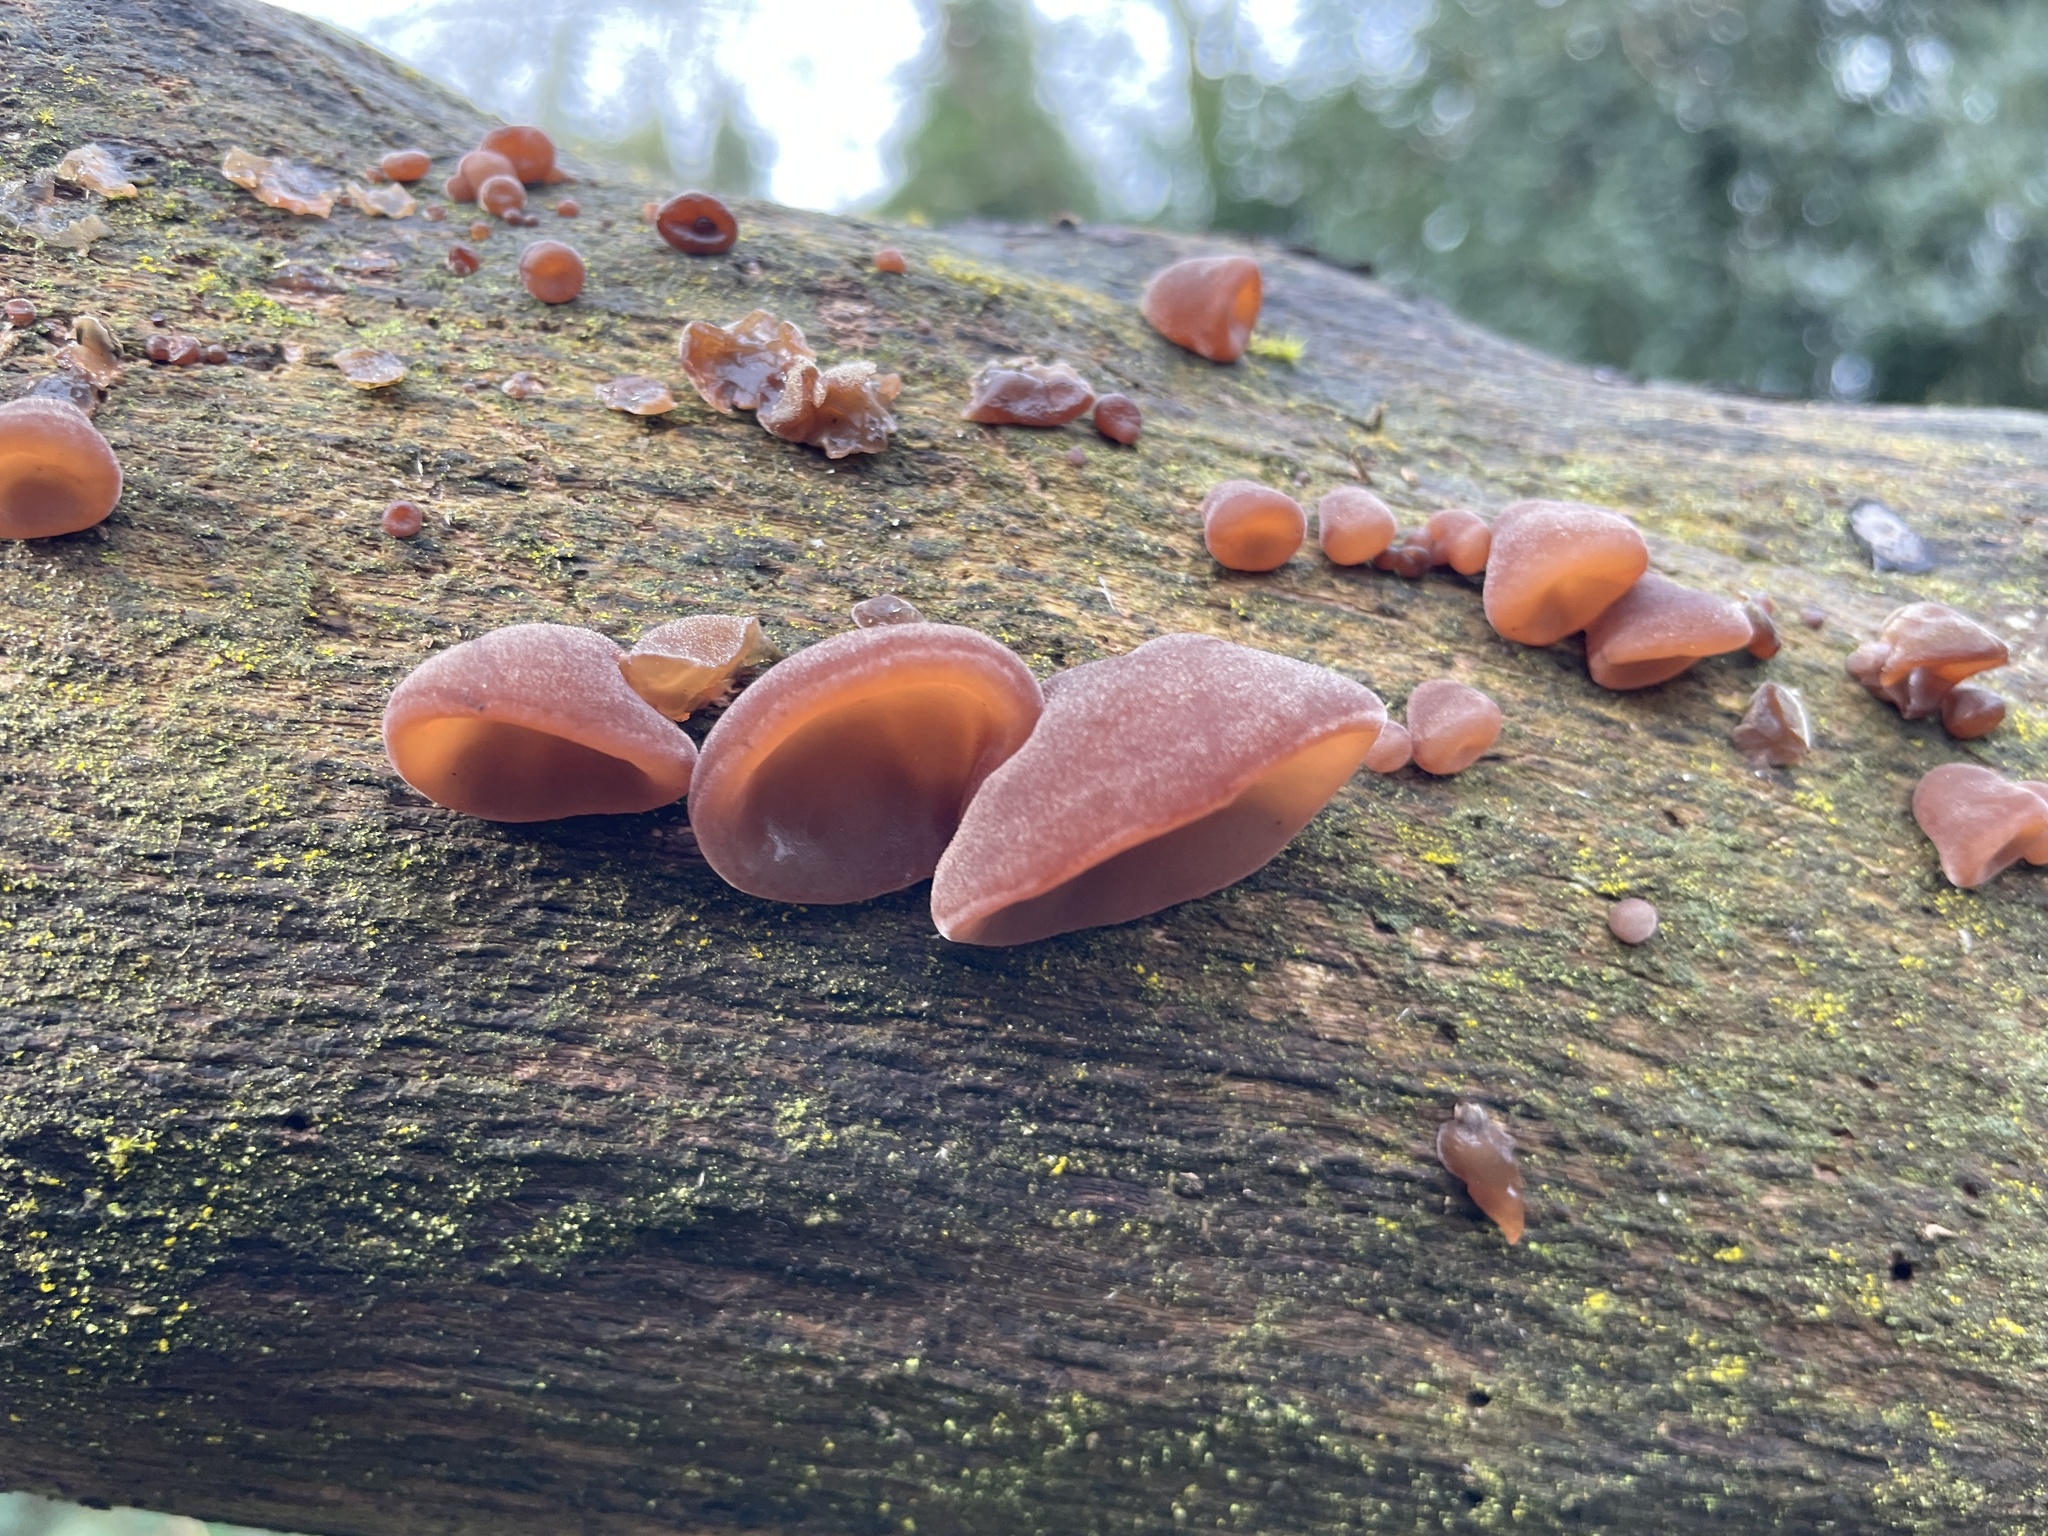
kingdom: Fungi
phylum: Basidiomycota
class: Agaricomycetes
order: Auriculariales
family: Auriculariaceae
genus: Auricularia
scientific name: Auricularia auricula-judae
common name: Jelly ear
